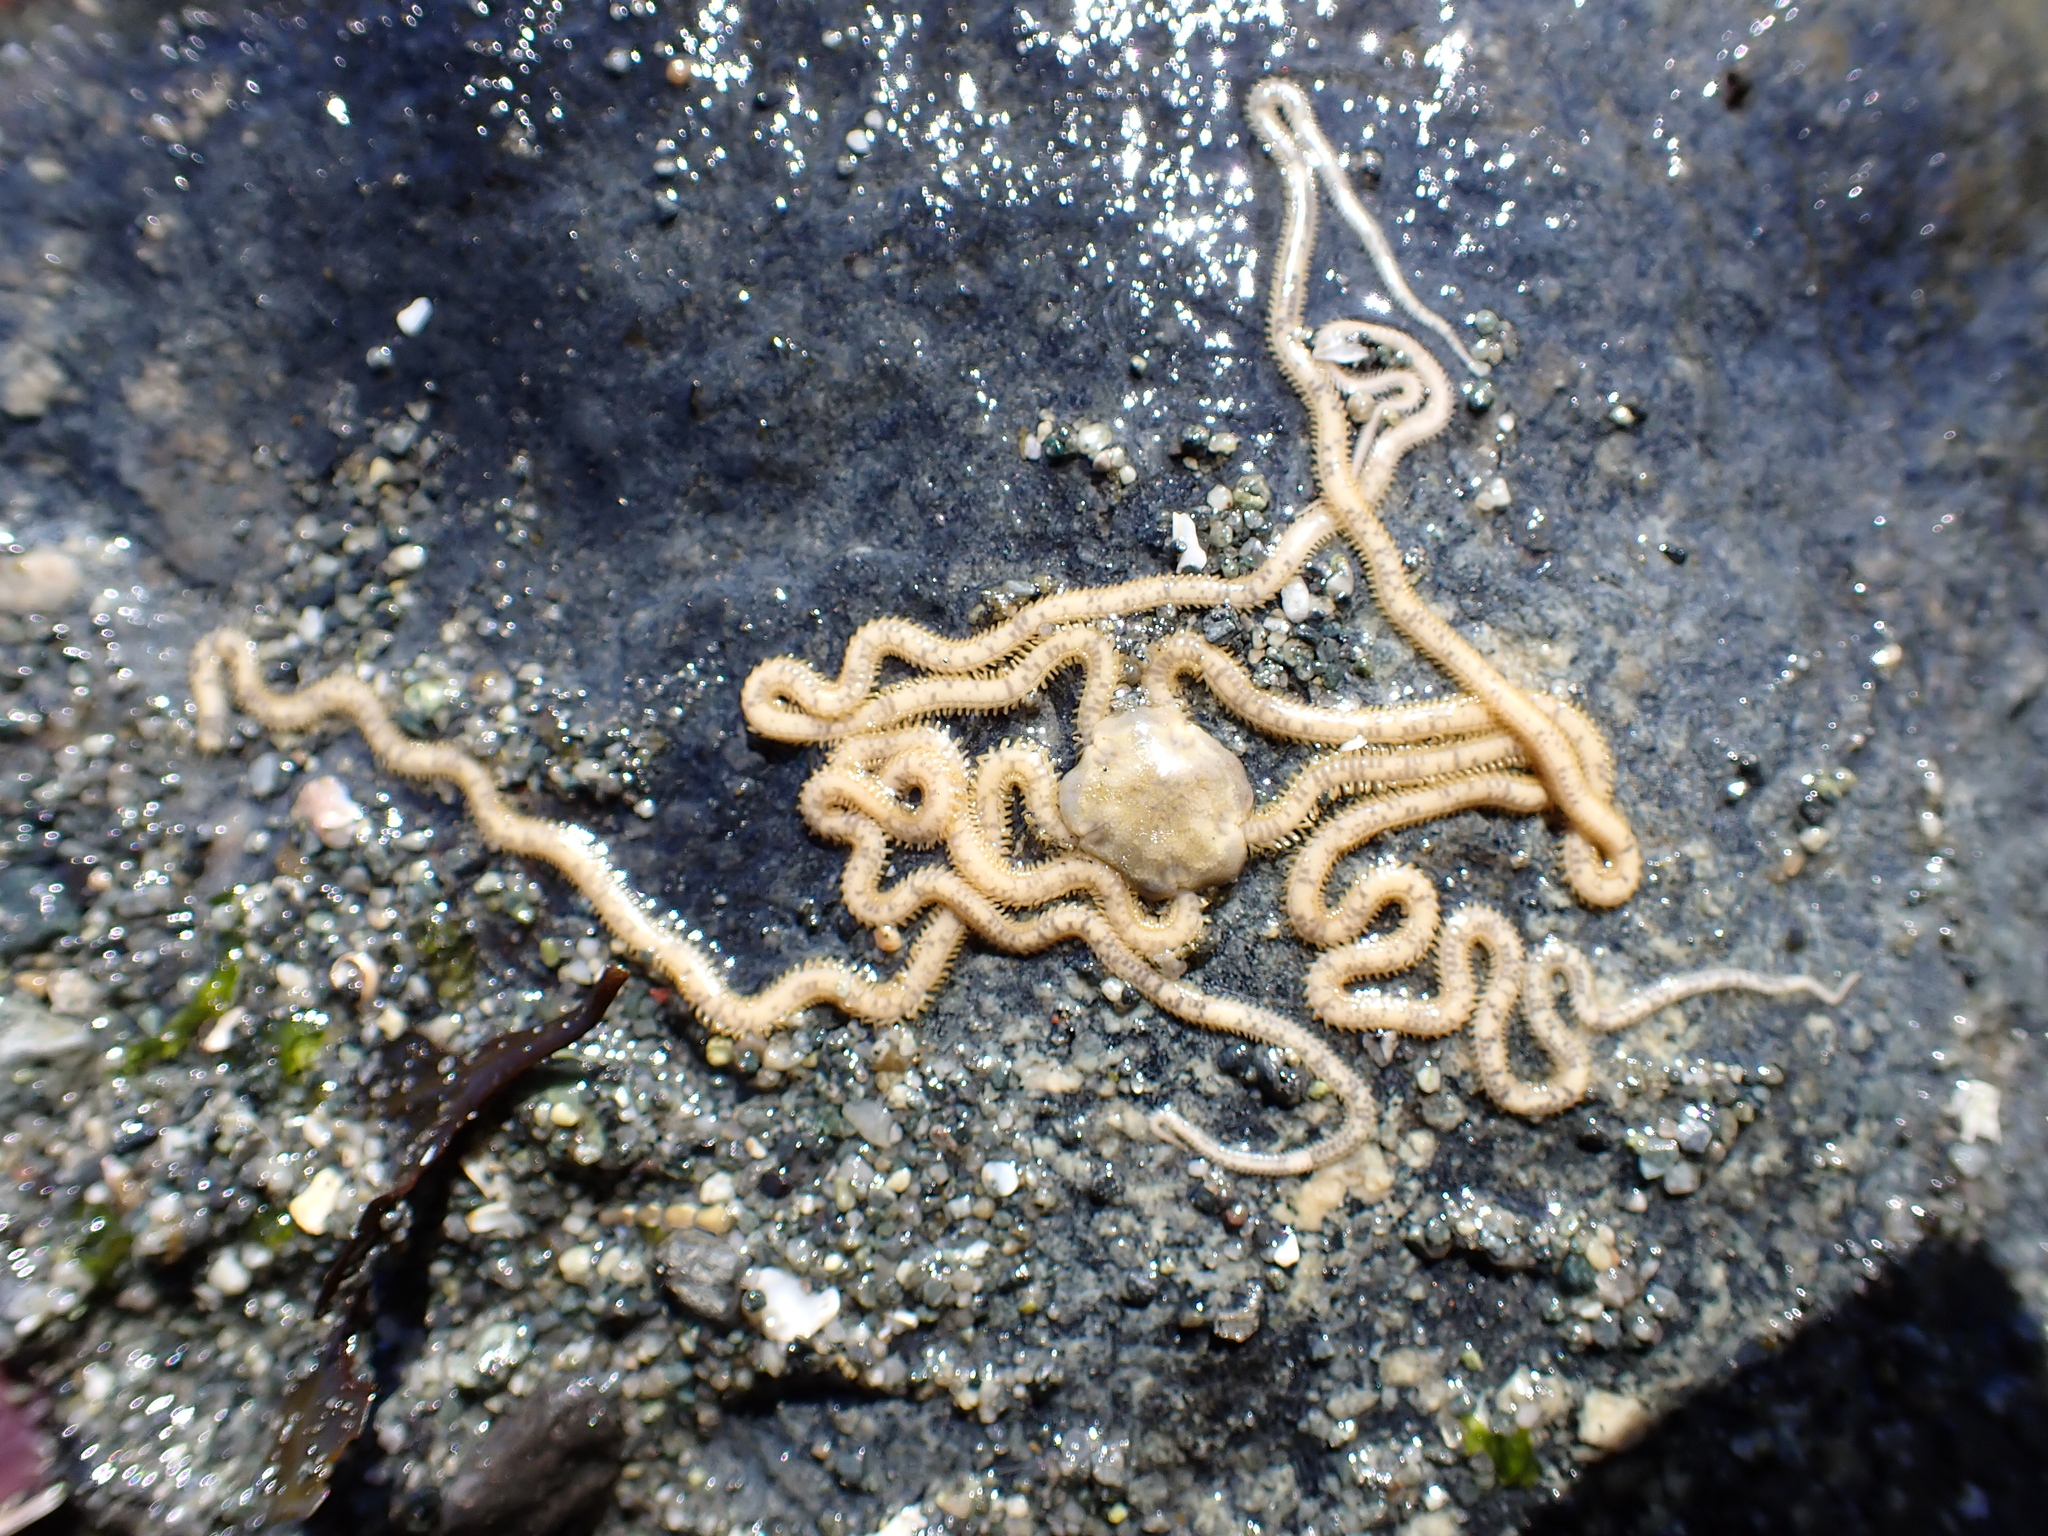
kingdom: Animalia
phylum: Echinodermata
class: Ophiuroidea
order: Amphilepidida
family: Amphiuridae
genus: Amphiodia
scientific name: Amphiodia occidentalis
